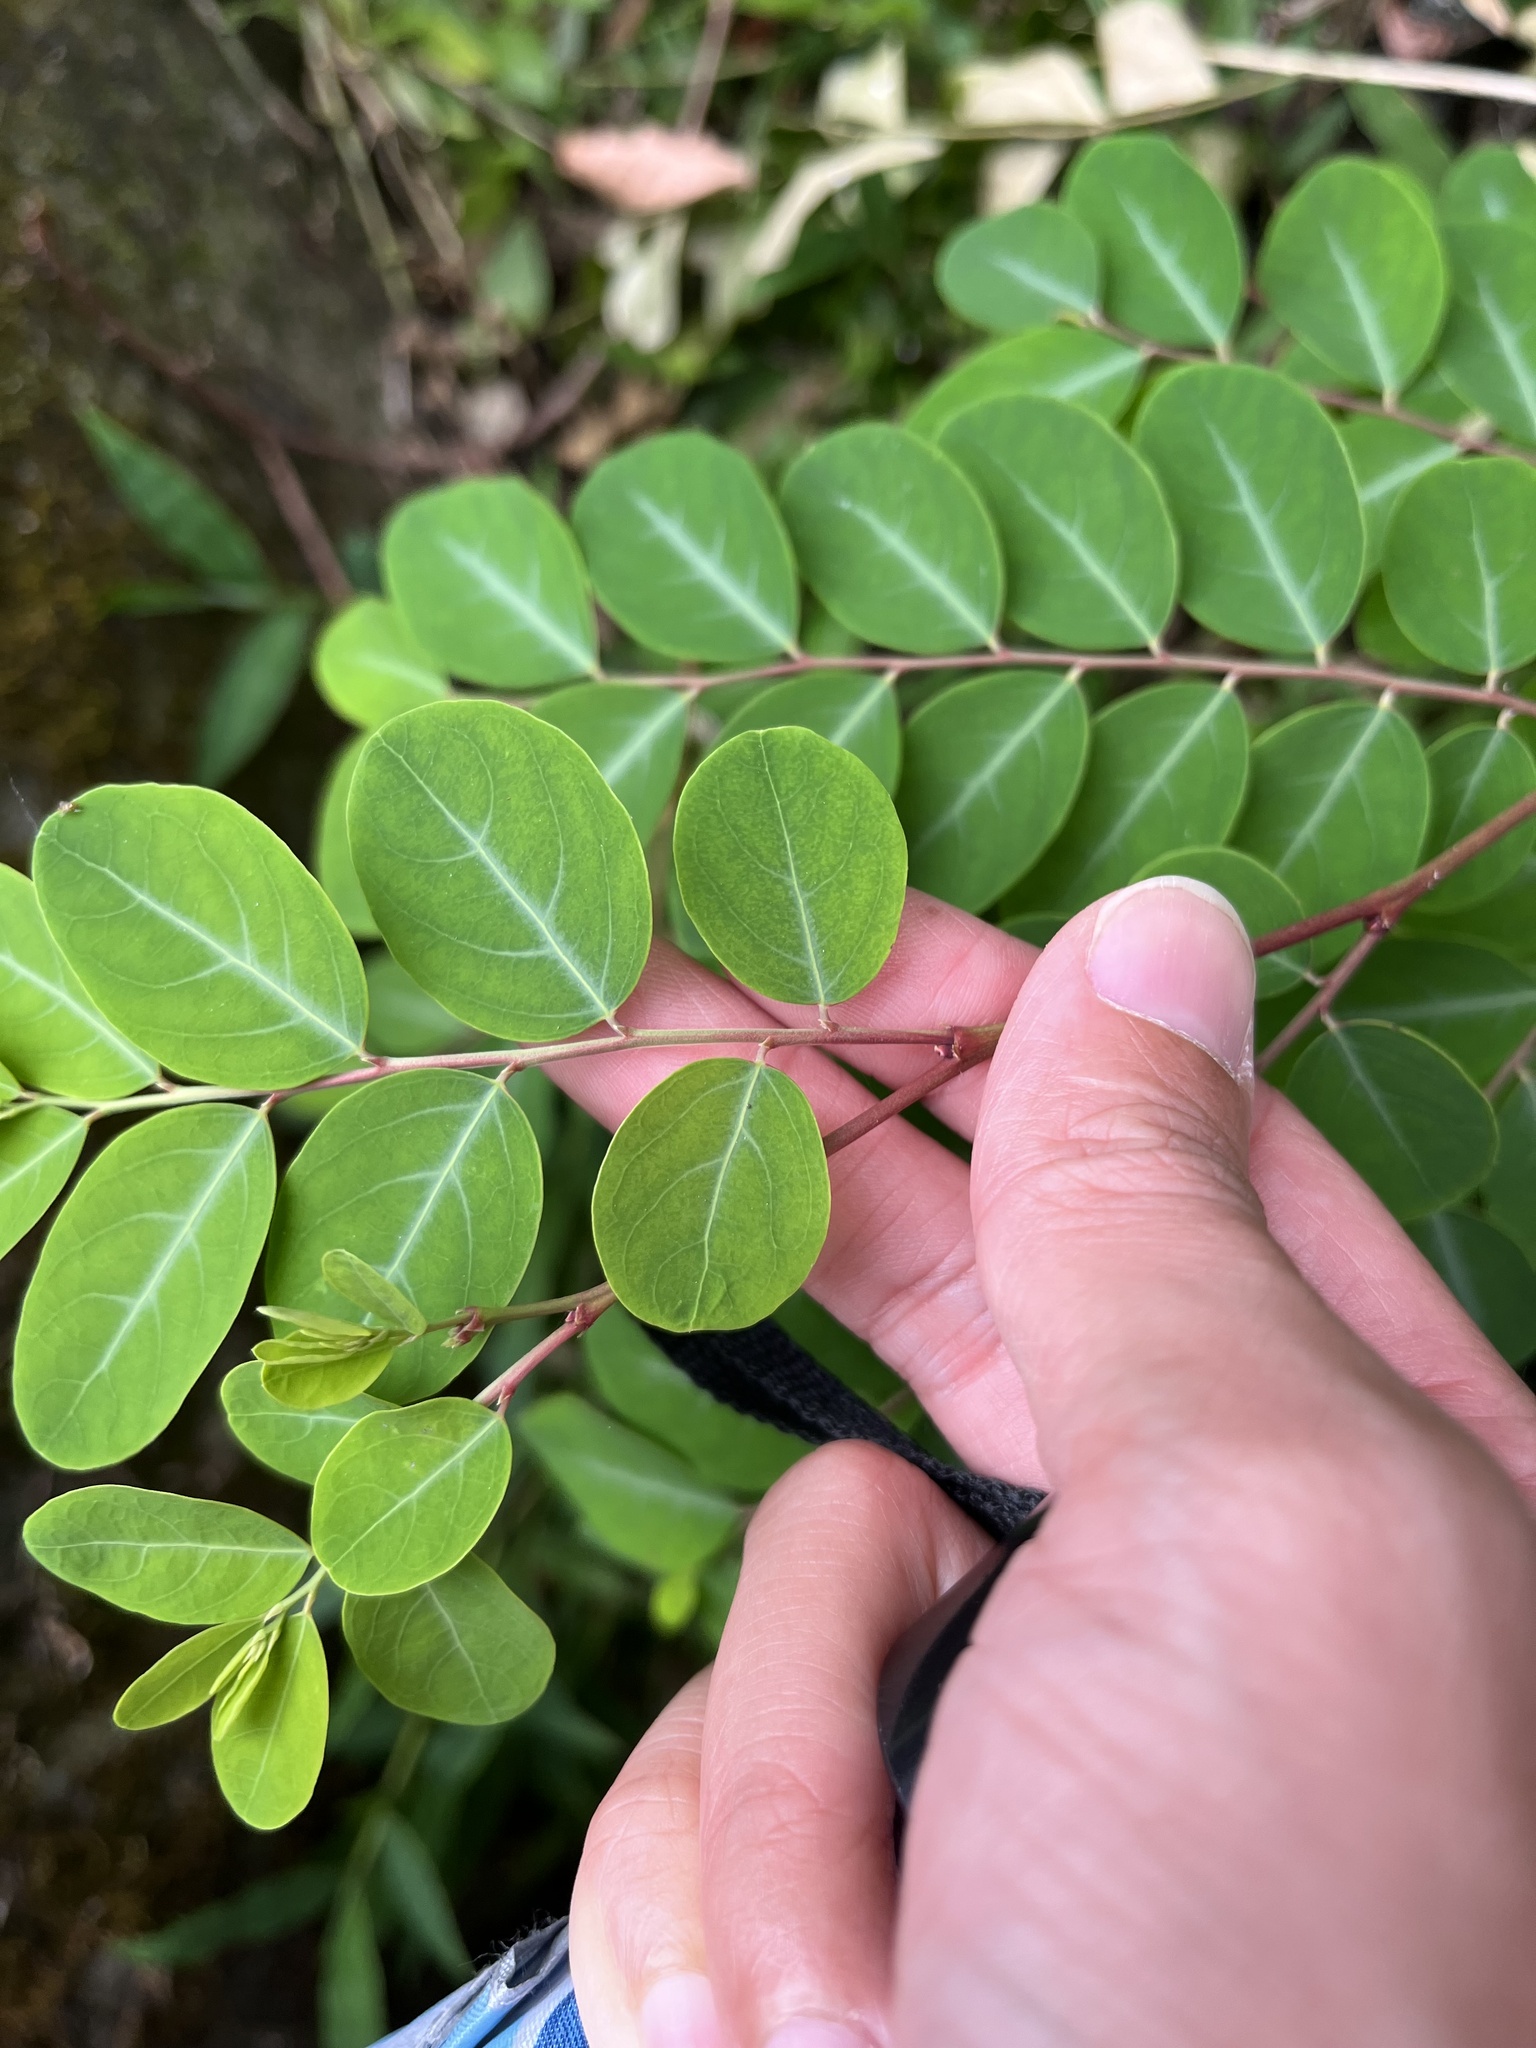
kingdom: Plantae
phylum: Tracheophyta
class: Magnoliopsida
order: Malpighiales
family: Phyllanthaceae
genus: Breynia
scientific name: Breynia vitis-idaea
